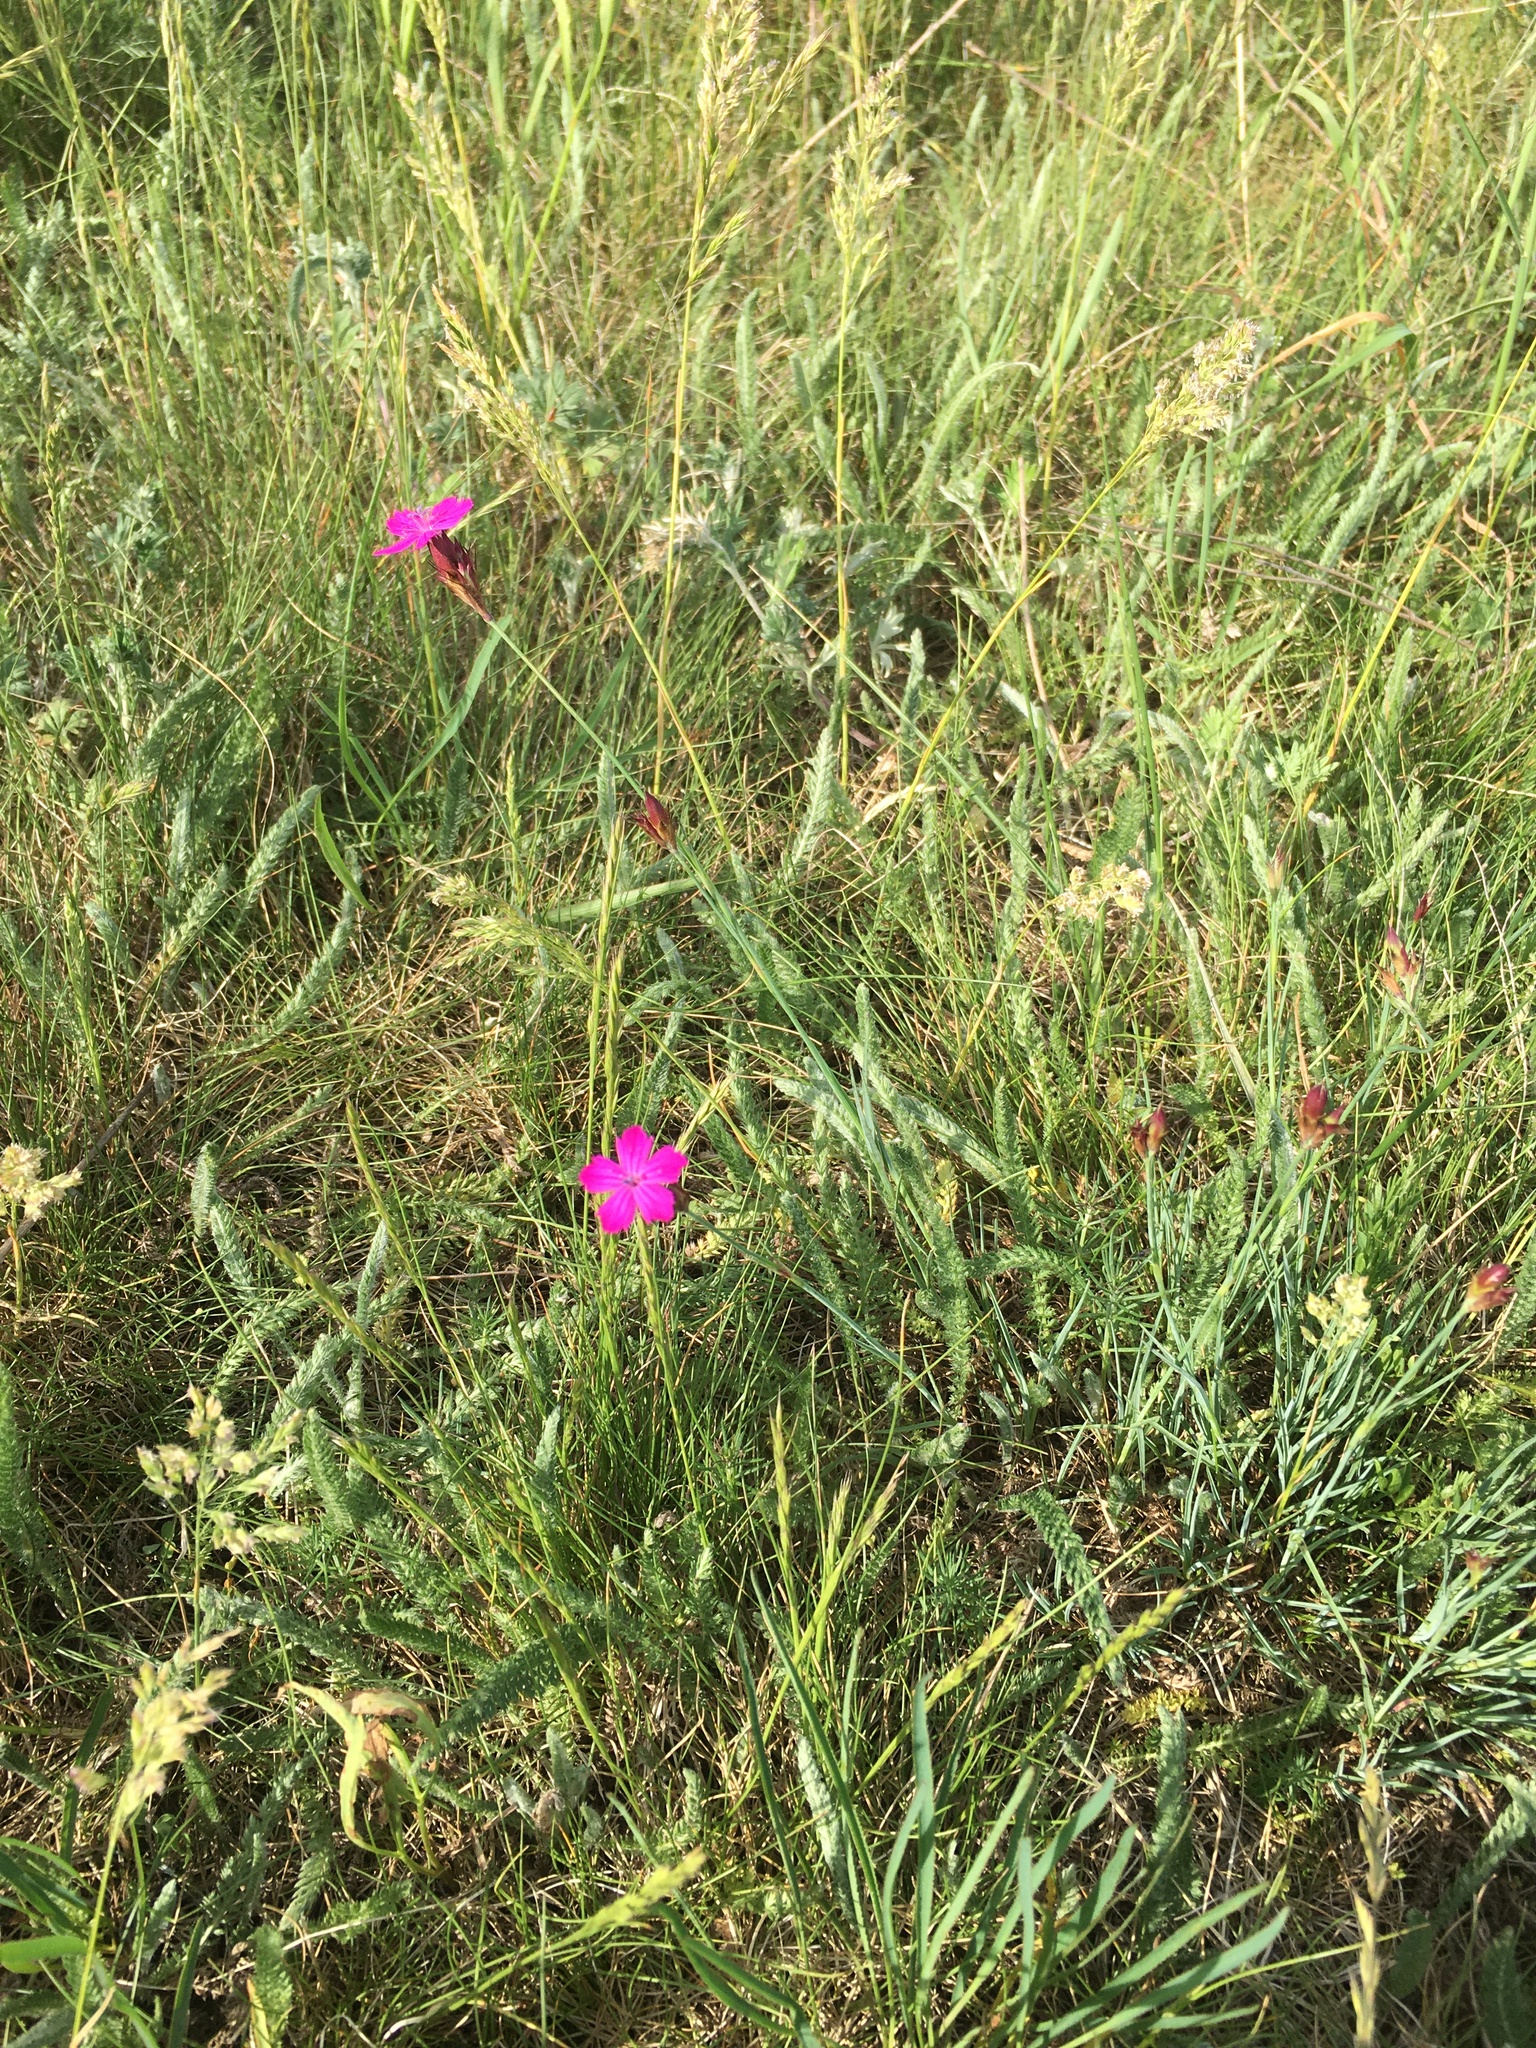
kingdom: Plantae
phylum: Tracheophyta
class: Magnoliopsida
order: Caryophyllales
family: Caryophyllaceae
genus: Dianthus
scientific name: Dianthus carthusianorum
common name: Carthusian pink
